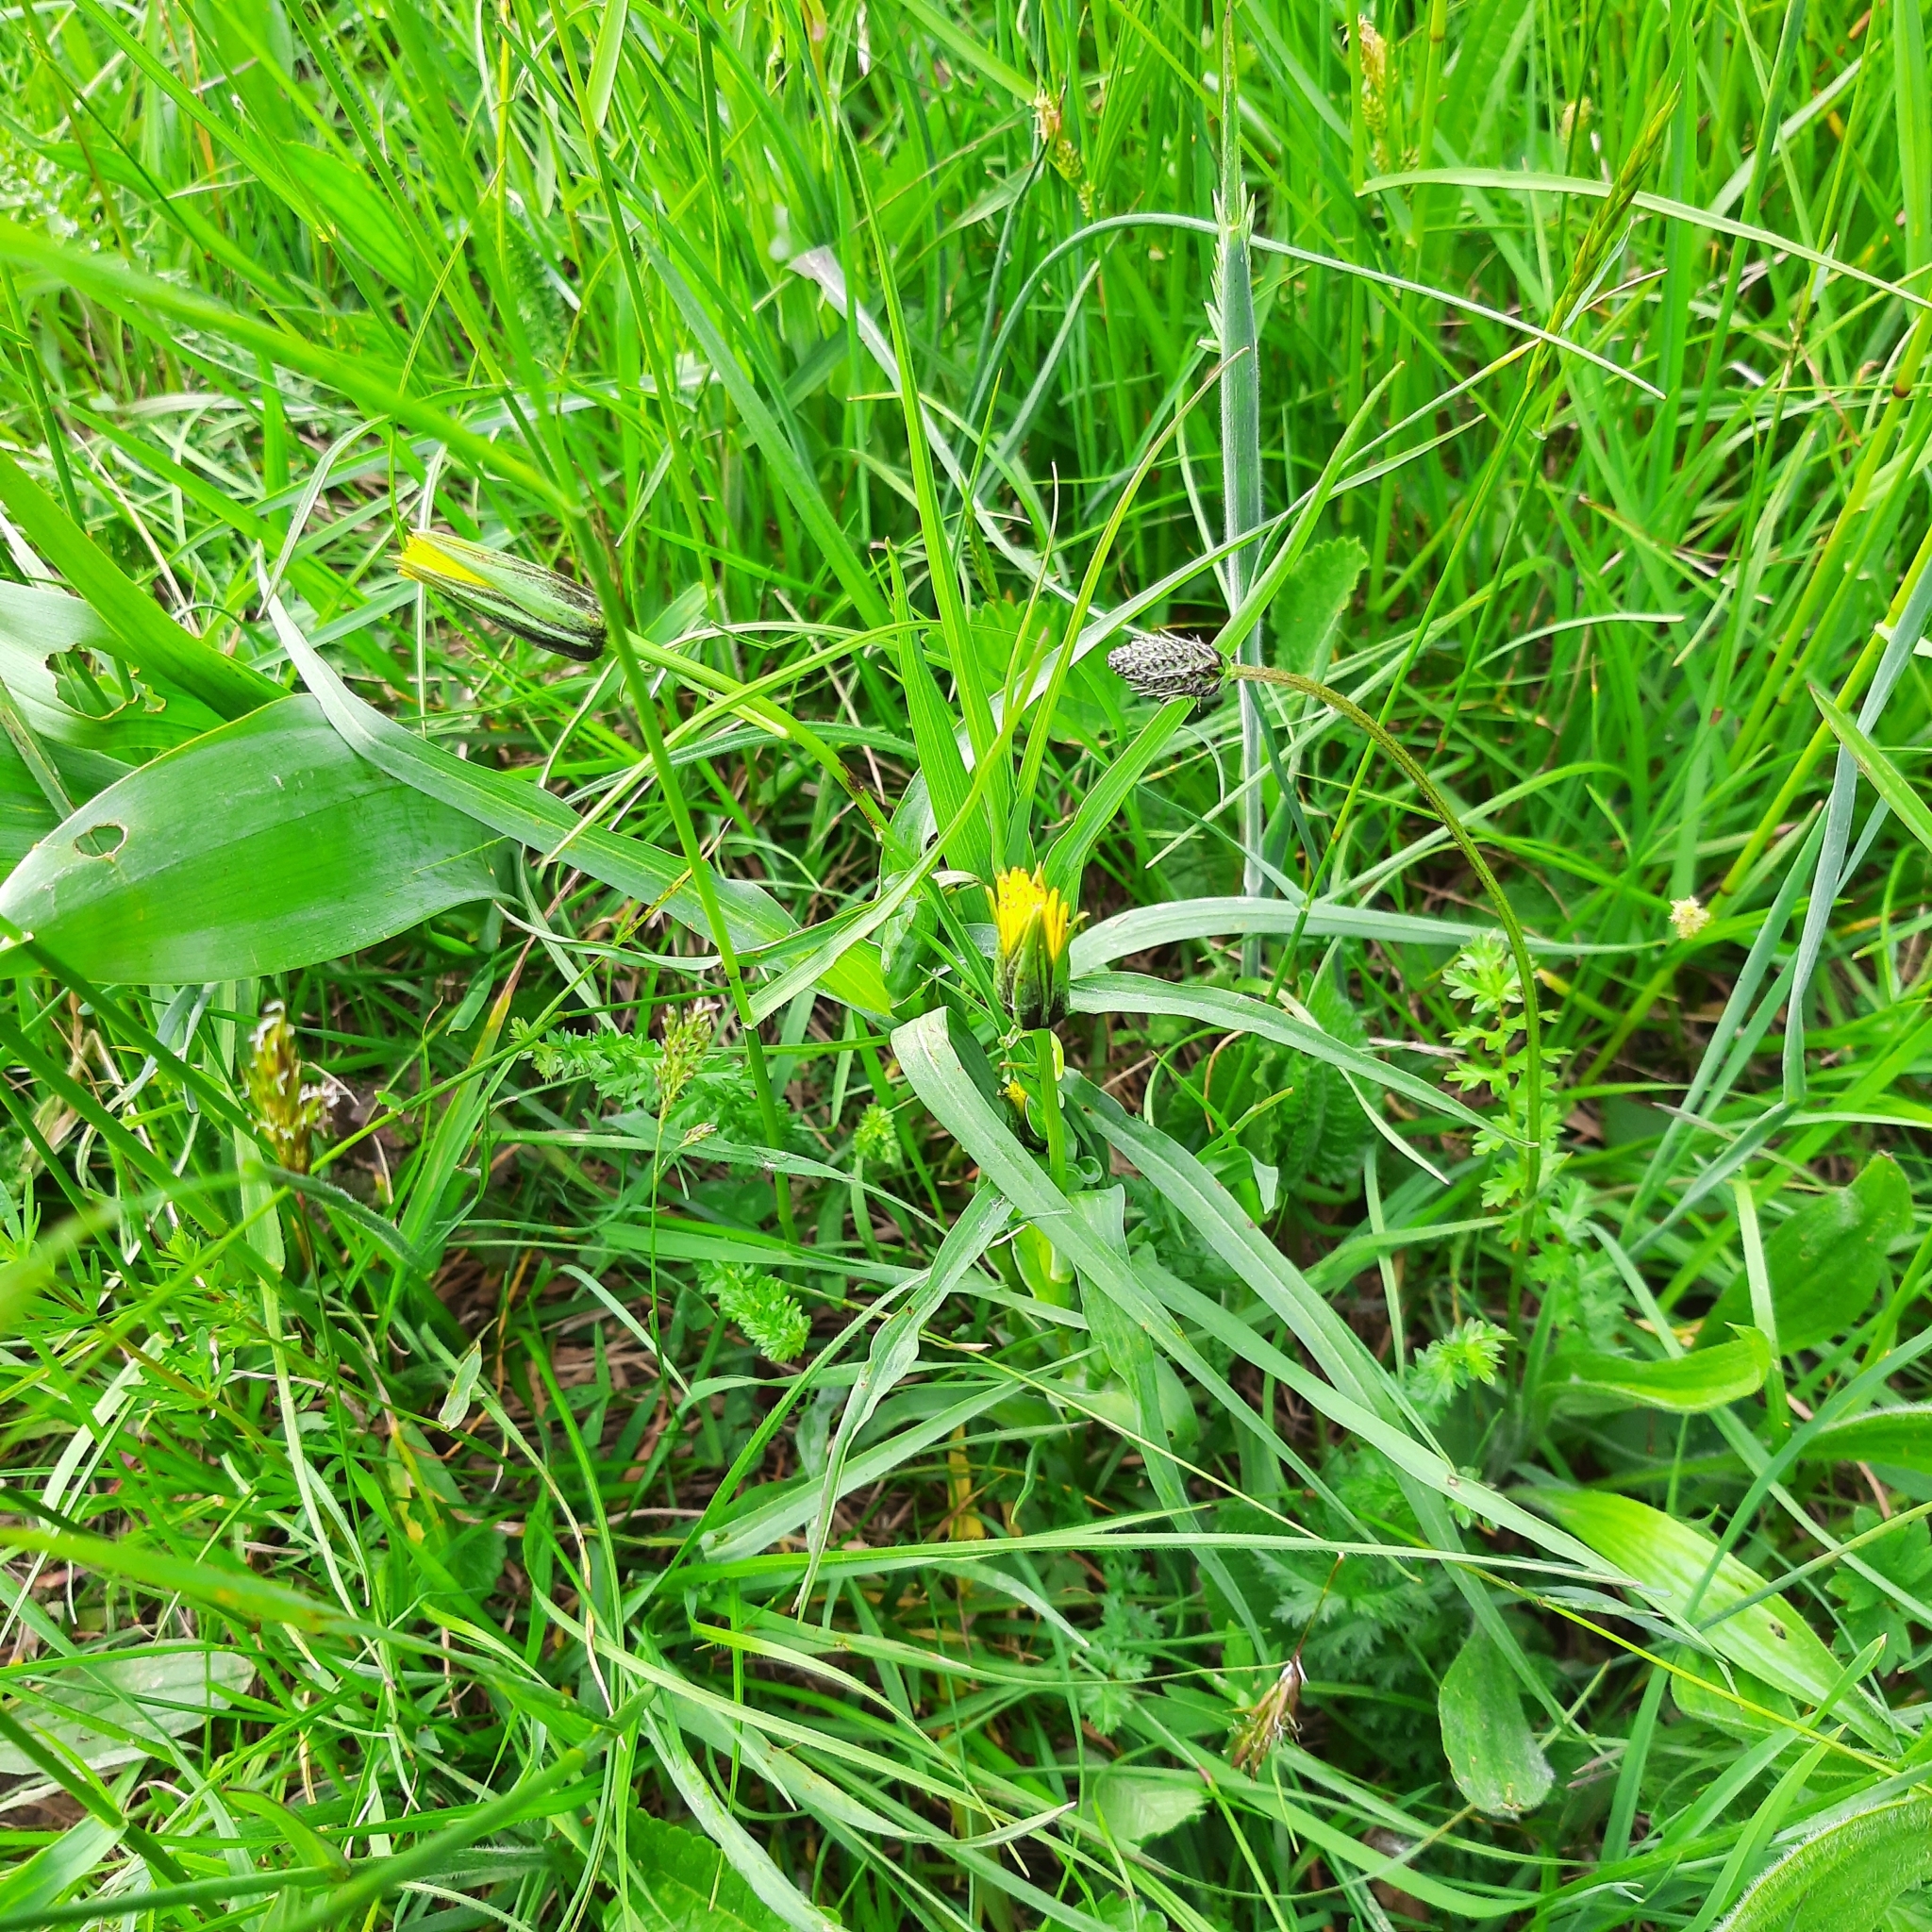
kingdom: Plantae
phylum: Tracheophyta
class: Magnoliopsida
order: Asterales
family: Asteraceae
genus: Tragopogon
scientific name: Tragopogon orientalis
